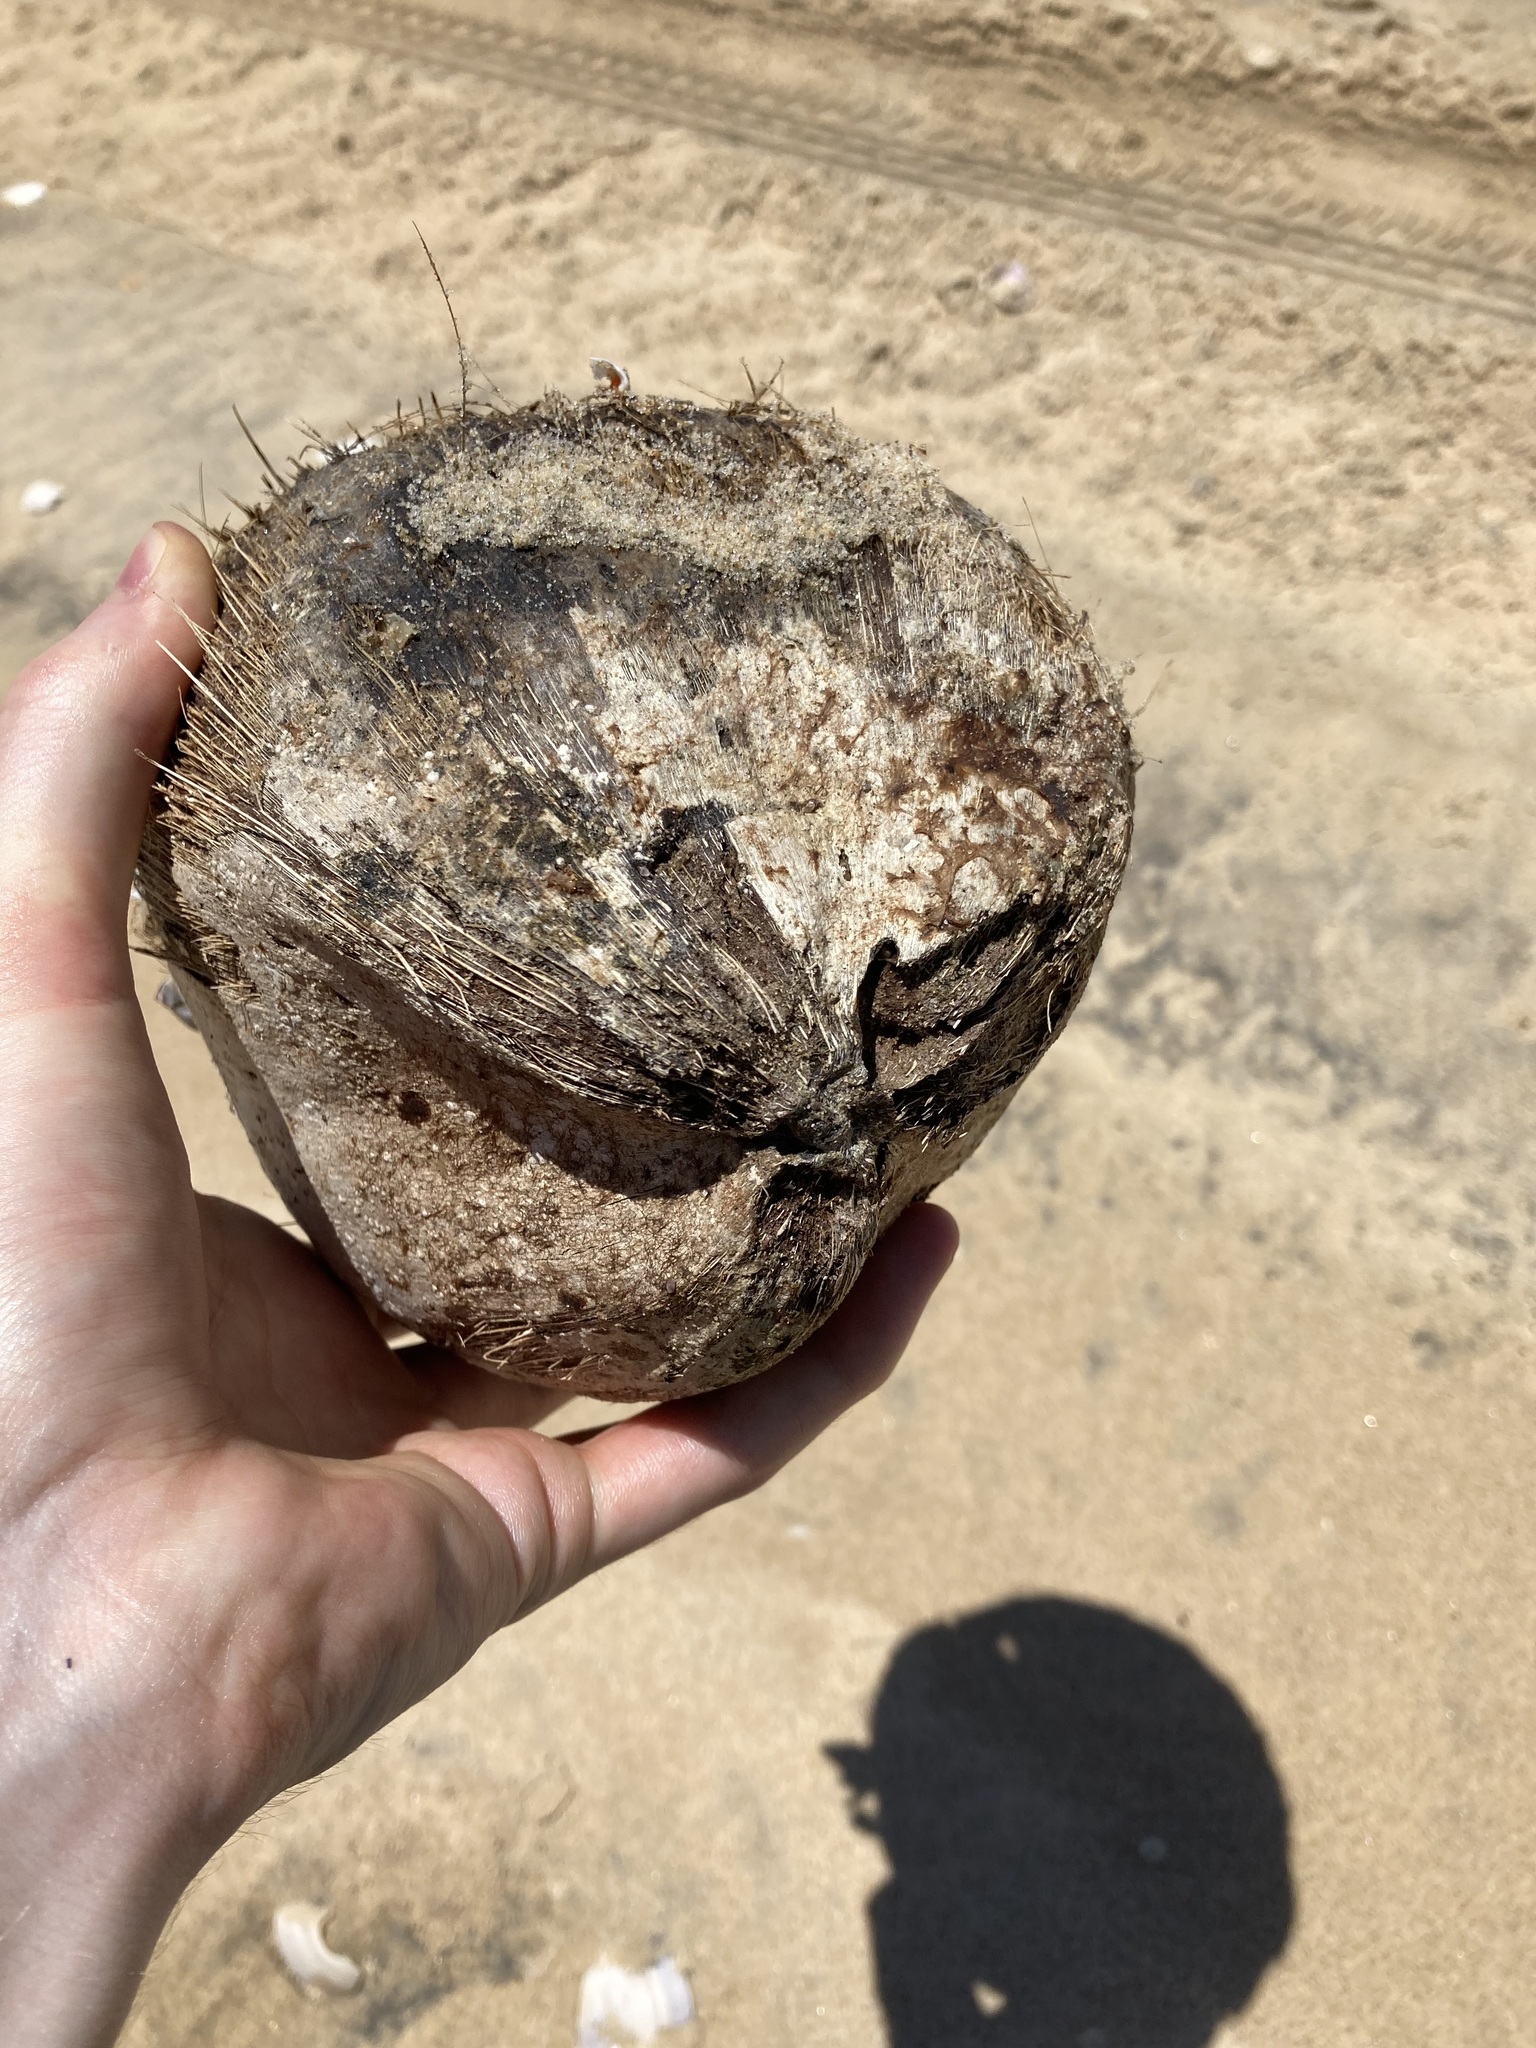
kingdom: Plantae
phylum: Tracheophyta
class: Liliopsida
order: Arecales
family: Arecaceae
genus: Cocos
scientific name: Cocos nucifera
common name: Coconut palm
